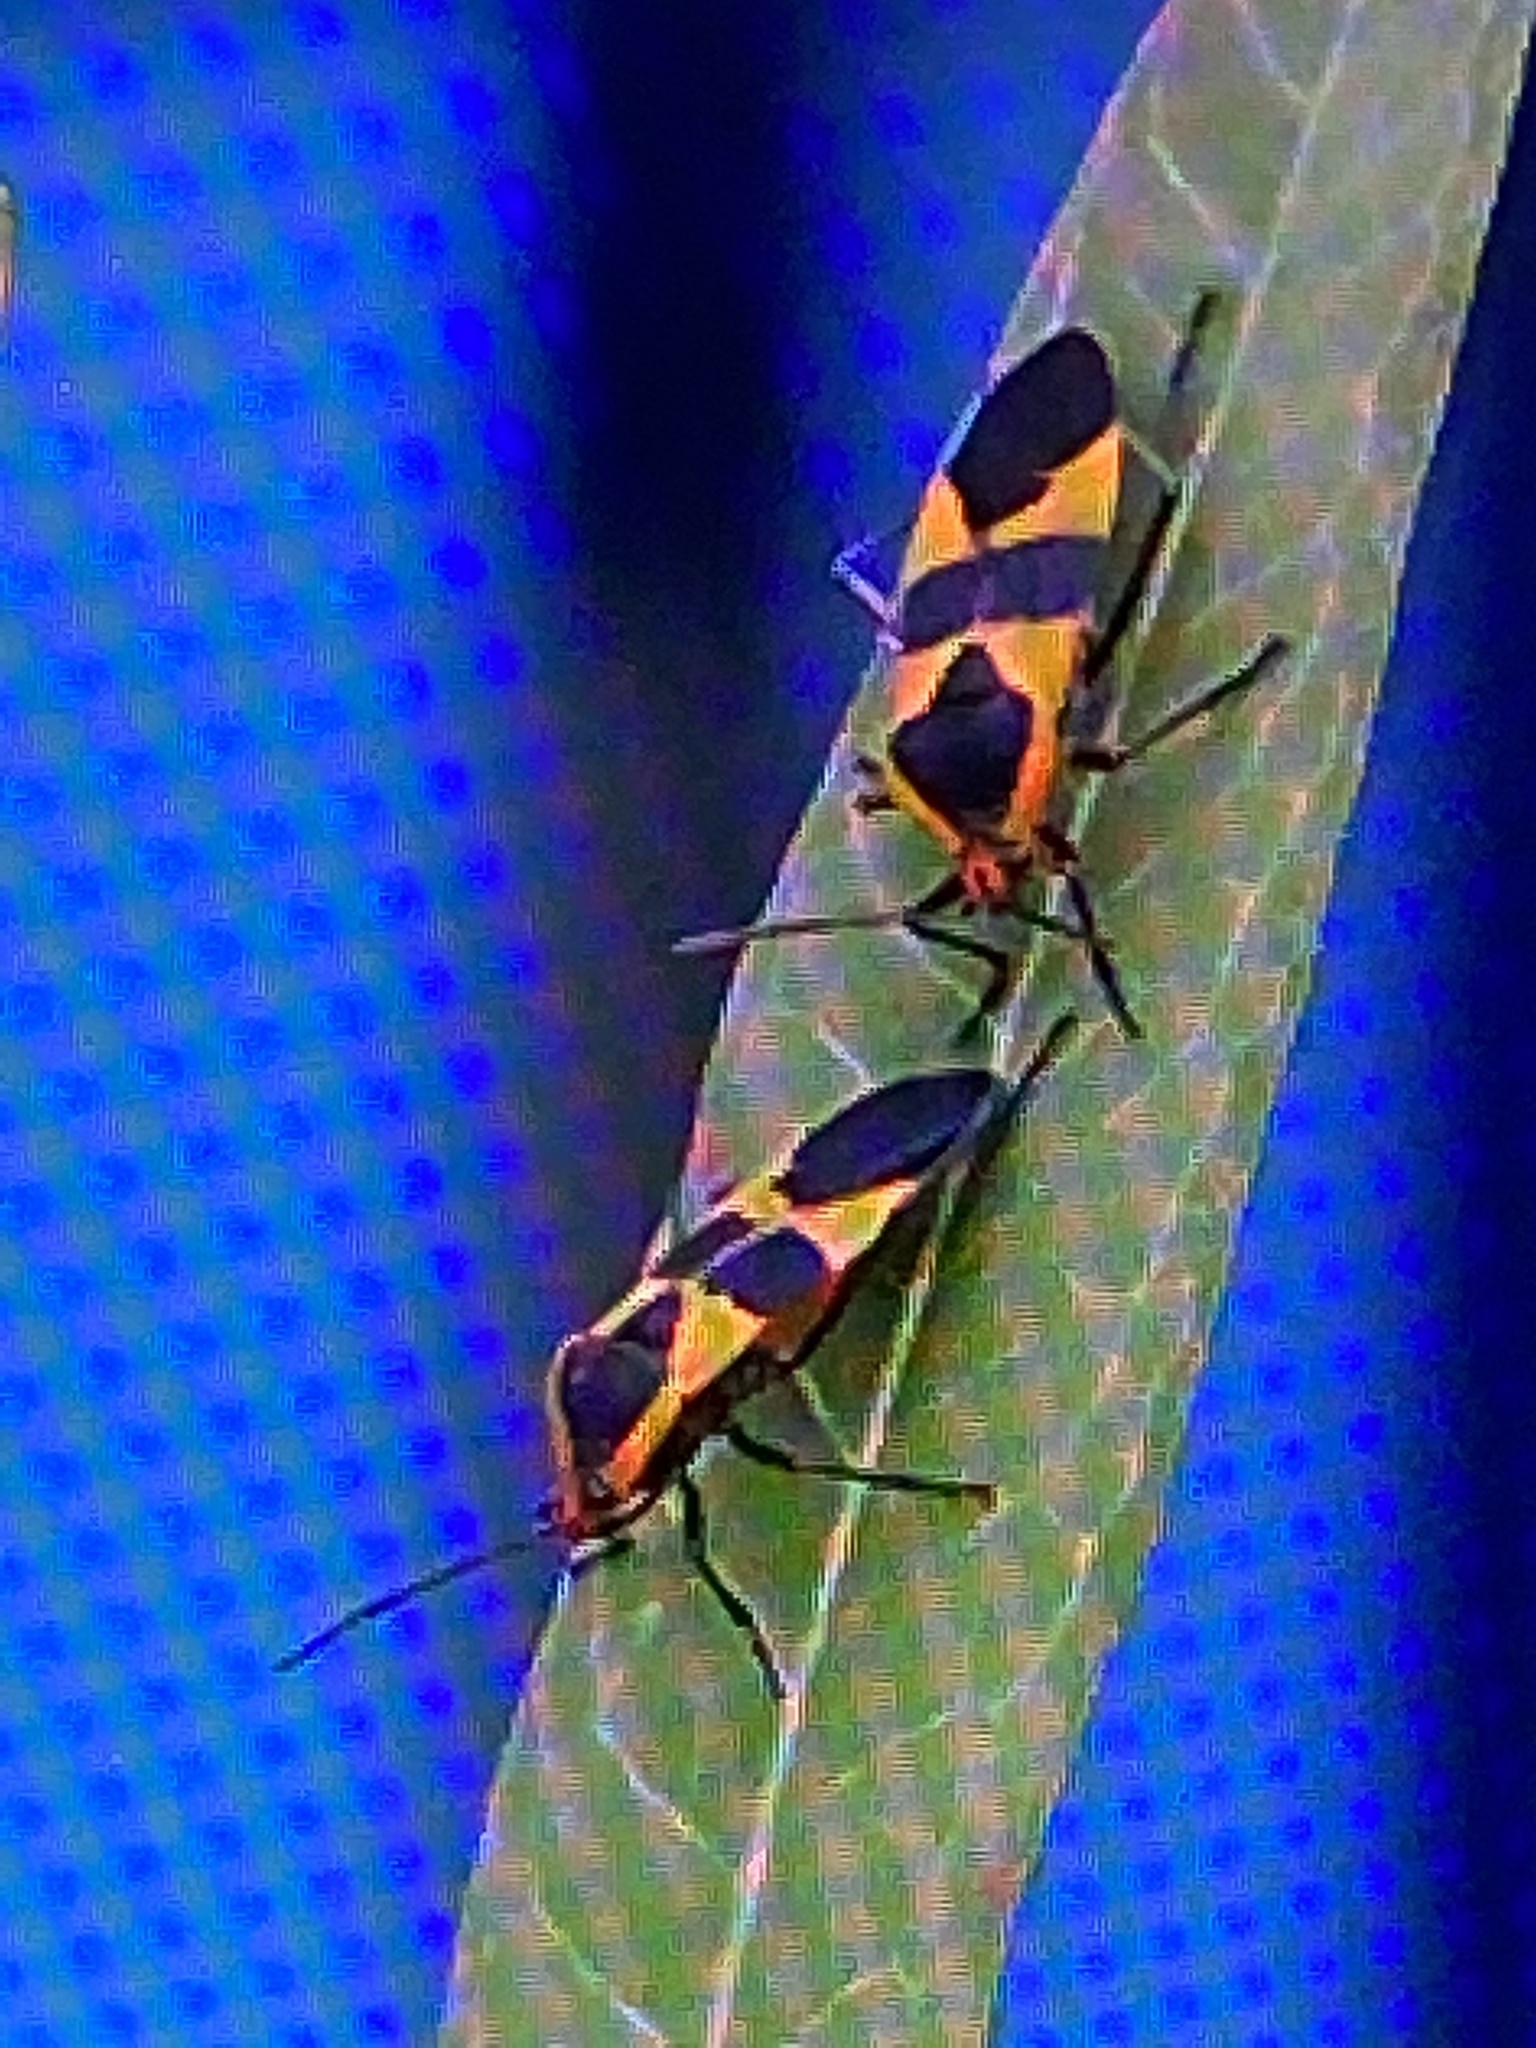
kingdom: Animalia
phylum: Arthropoda
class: Insecta
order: Hemiptera
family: Lygaeidae
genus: Oncopeltus
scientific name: Oncopeltus fasciatus
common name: Large milkweed bug
